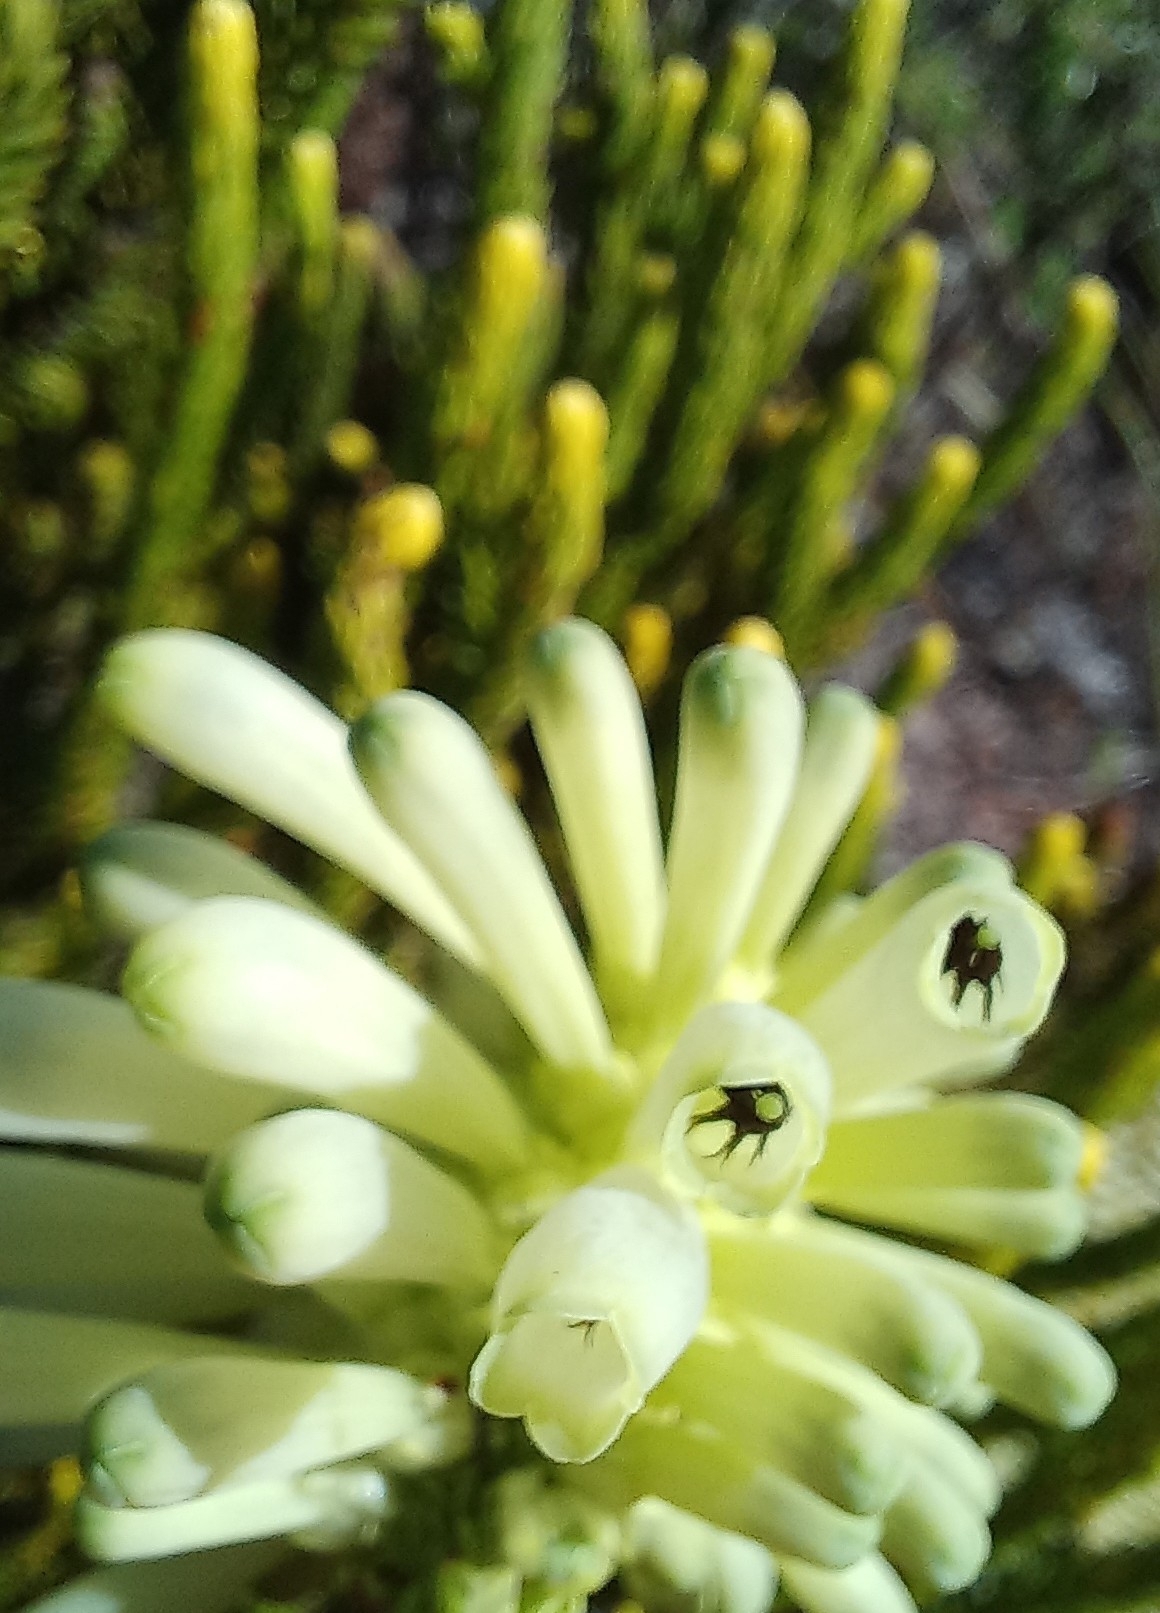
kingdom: Plantae
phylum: Tracheophyta
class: Magnoliopsida
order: Ericales
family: Ericaceae
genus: Erica
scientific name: Erica sessiliflora
